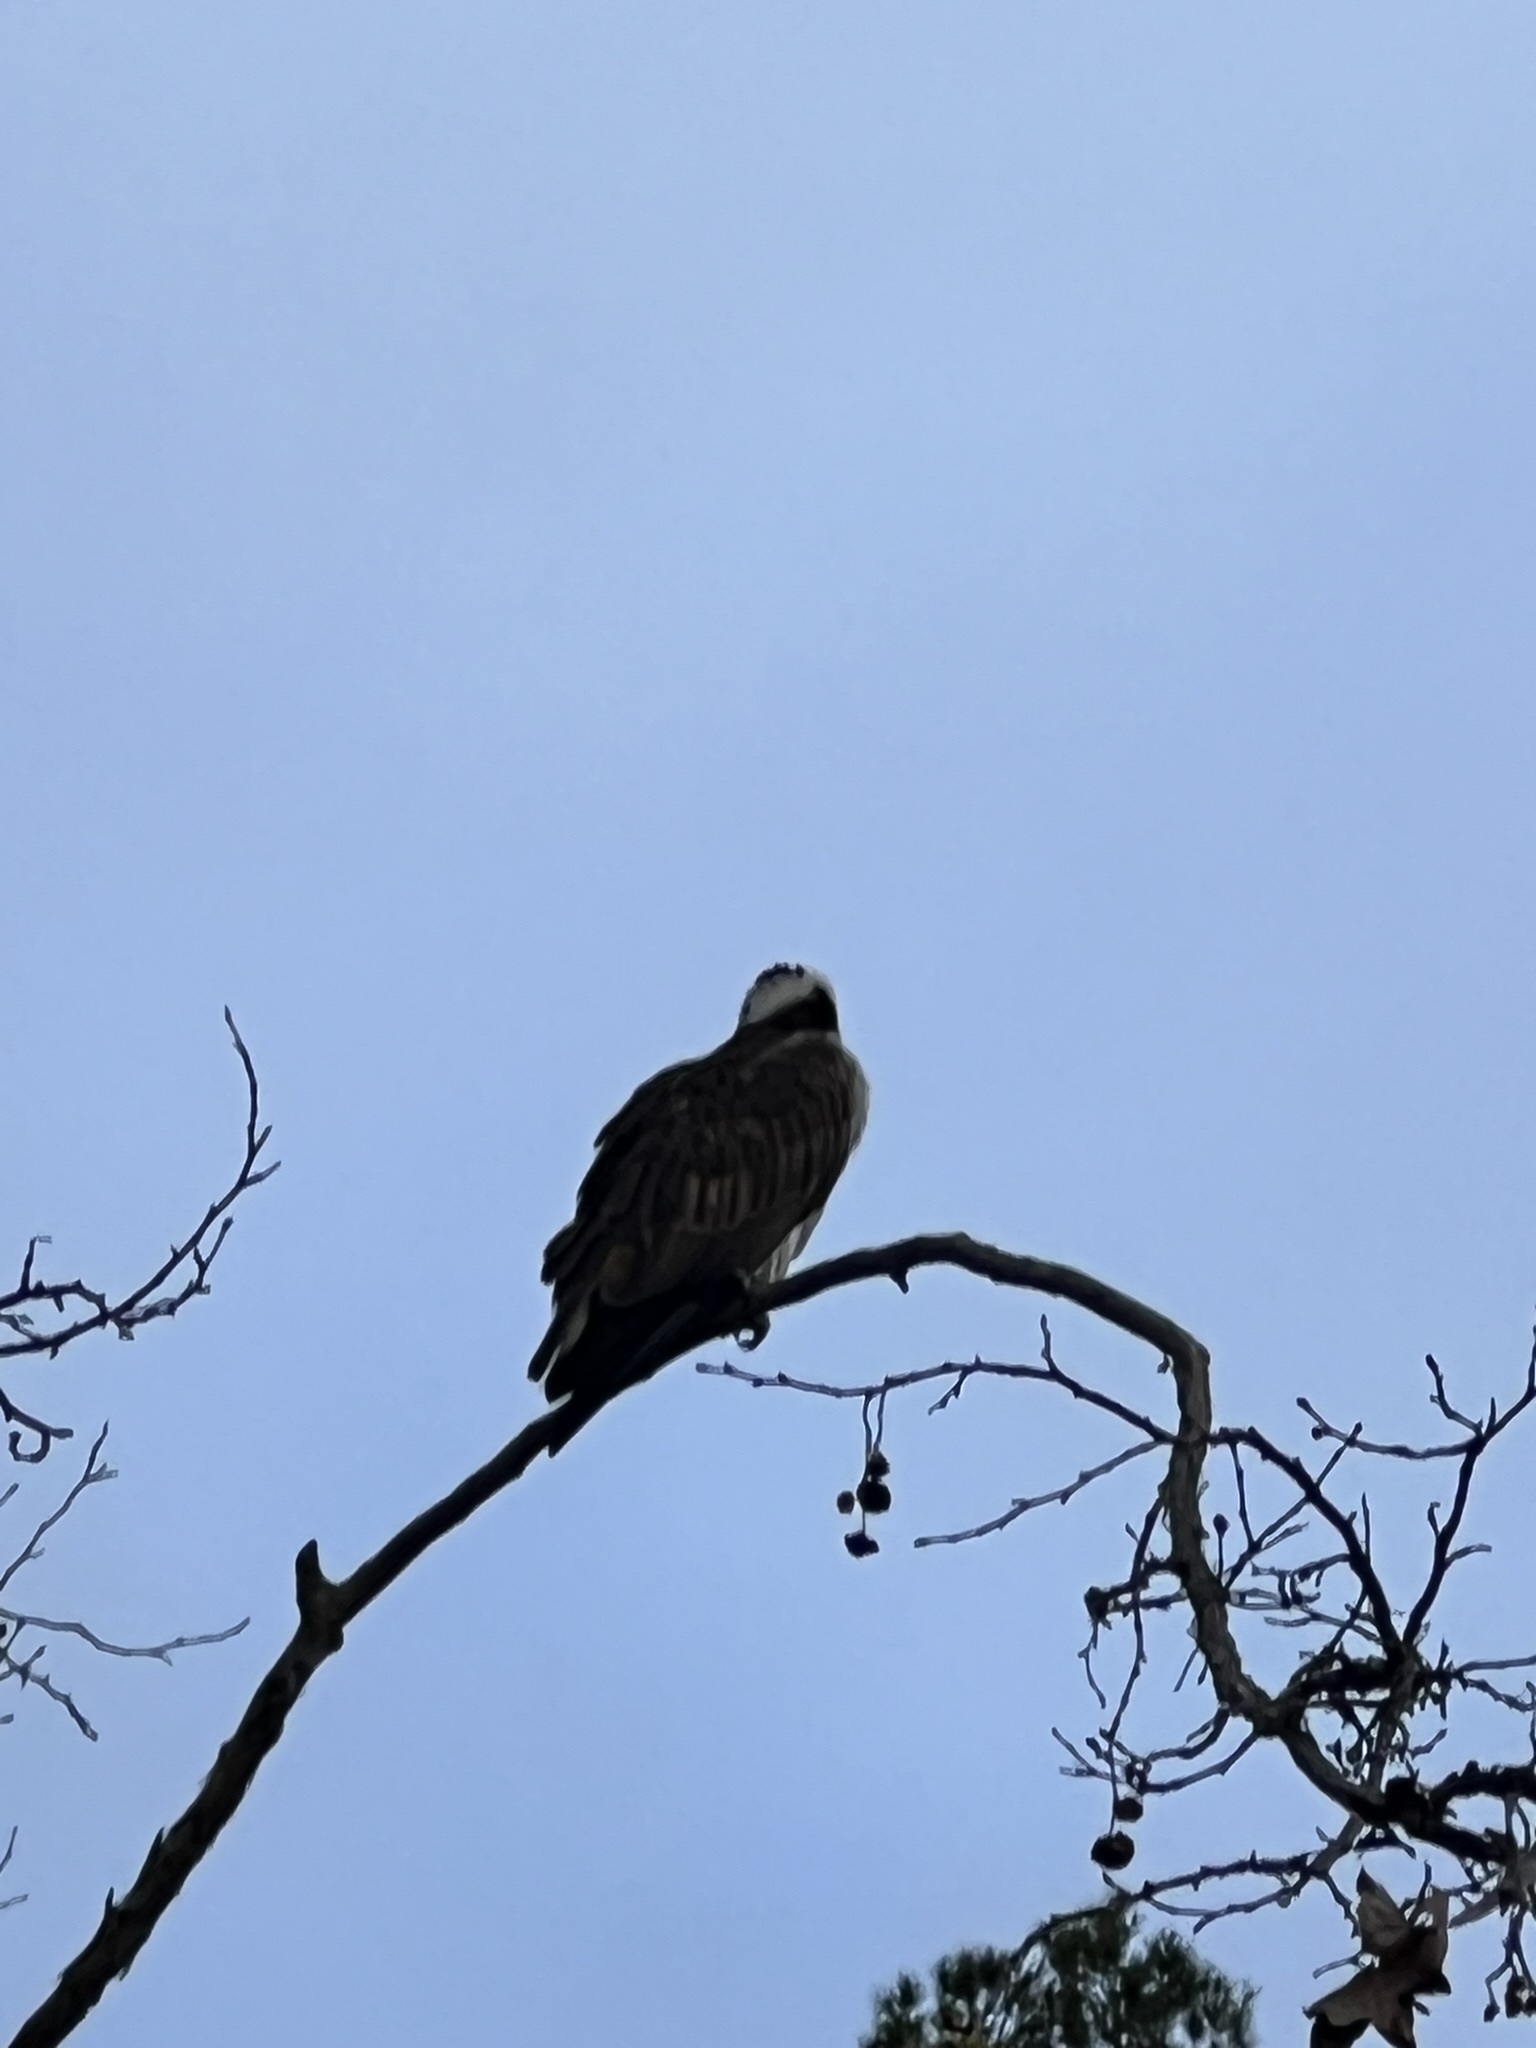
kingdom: Animalia
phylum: Chordata
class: Aves
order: Accipitriformes
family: Pandionidae
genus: Pandion
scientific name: Pandion haliaetus
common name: Osprey
